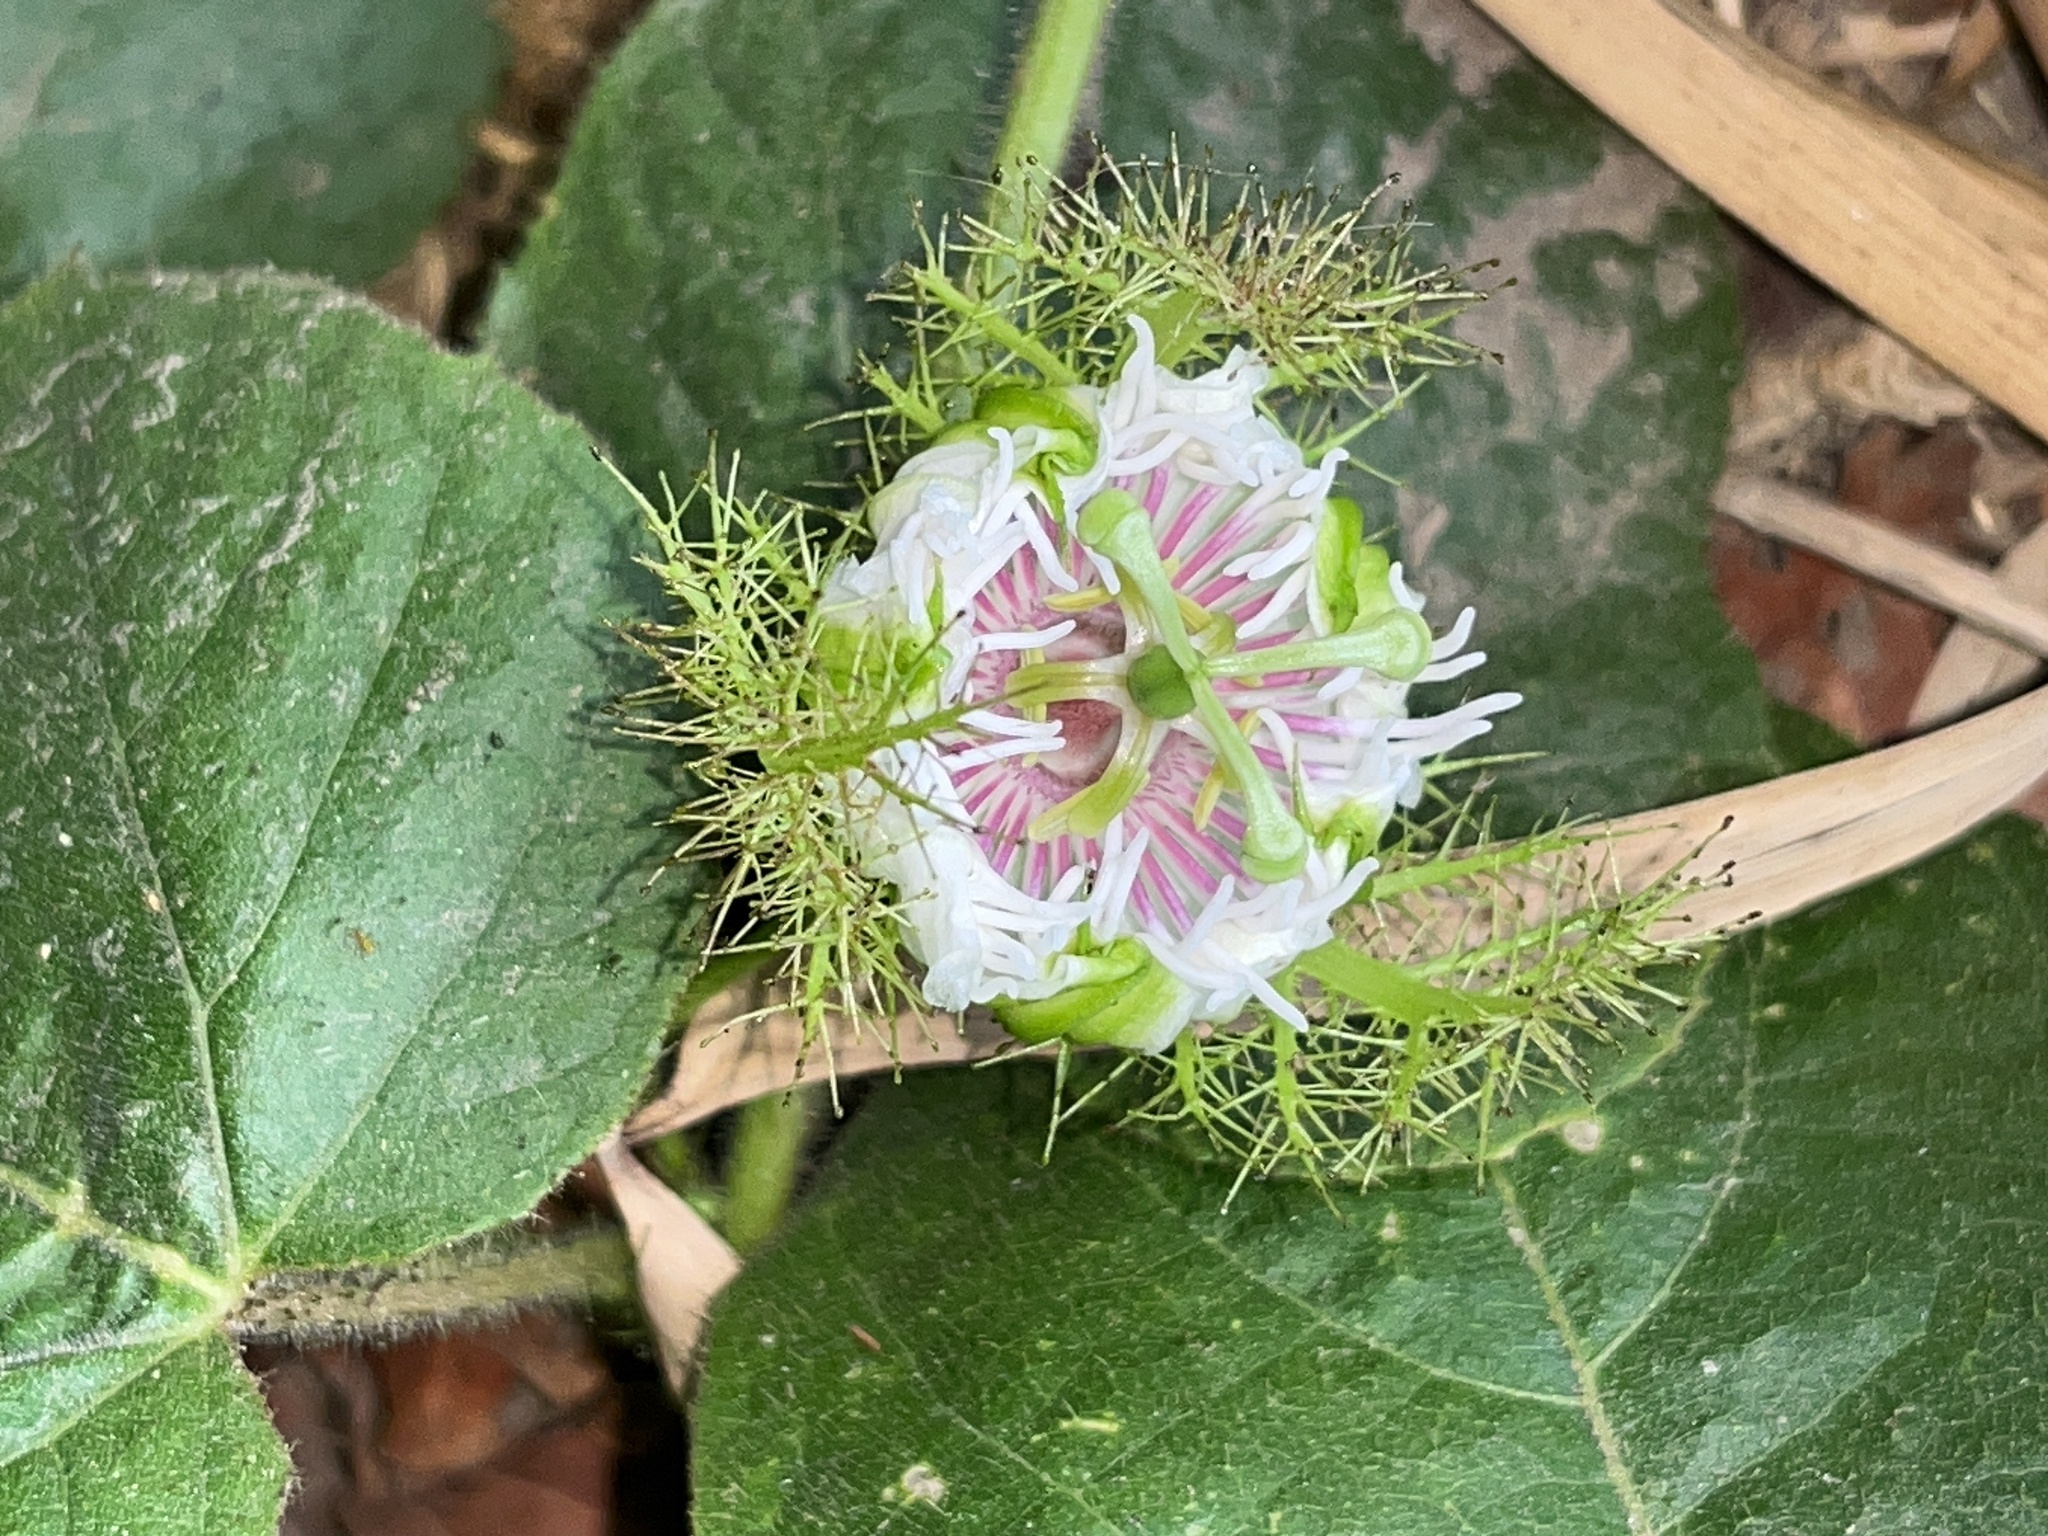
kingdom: Plantae
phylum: Tracheophyta
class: Magnoliopsida
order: Malpighiales
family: Passifloraceae
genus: Passiflora
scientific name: Passiflora vesicaria
